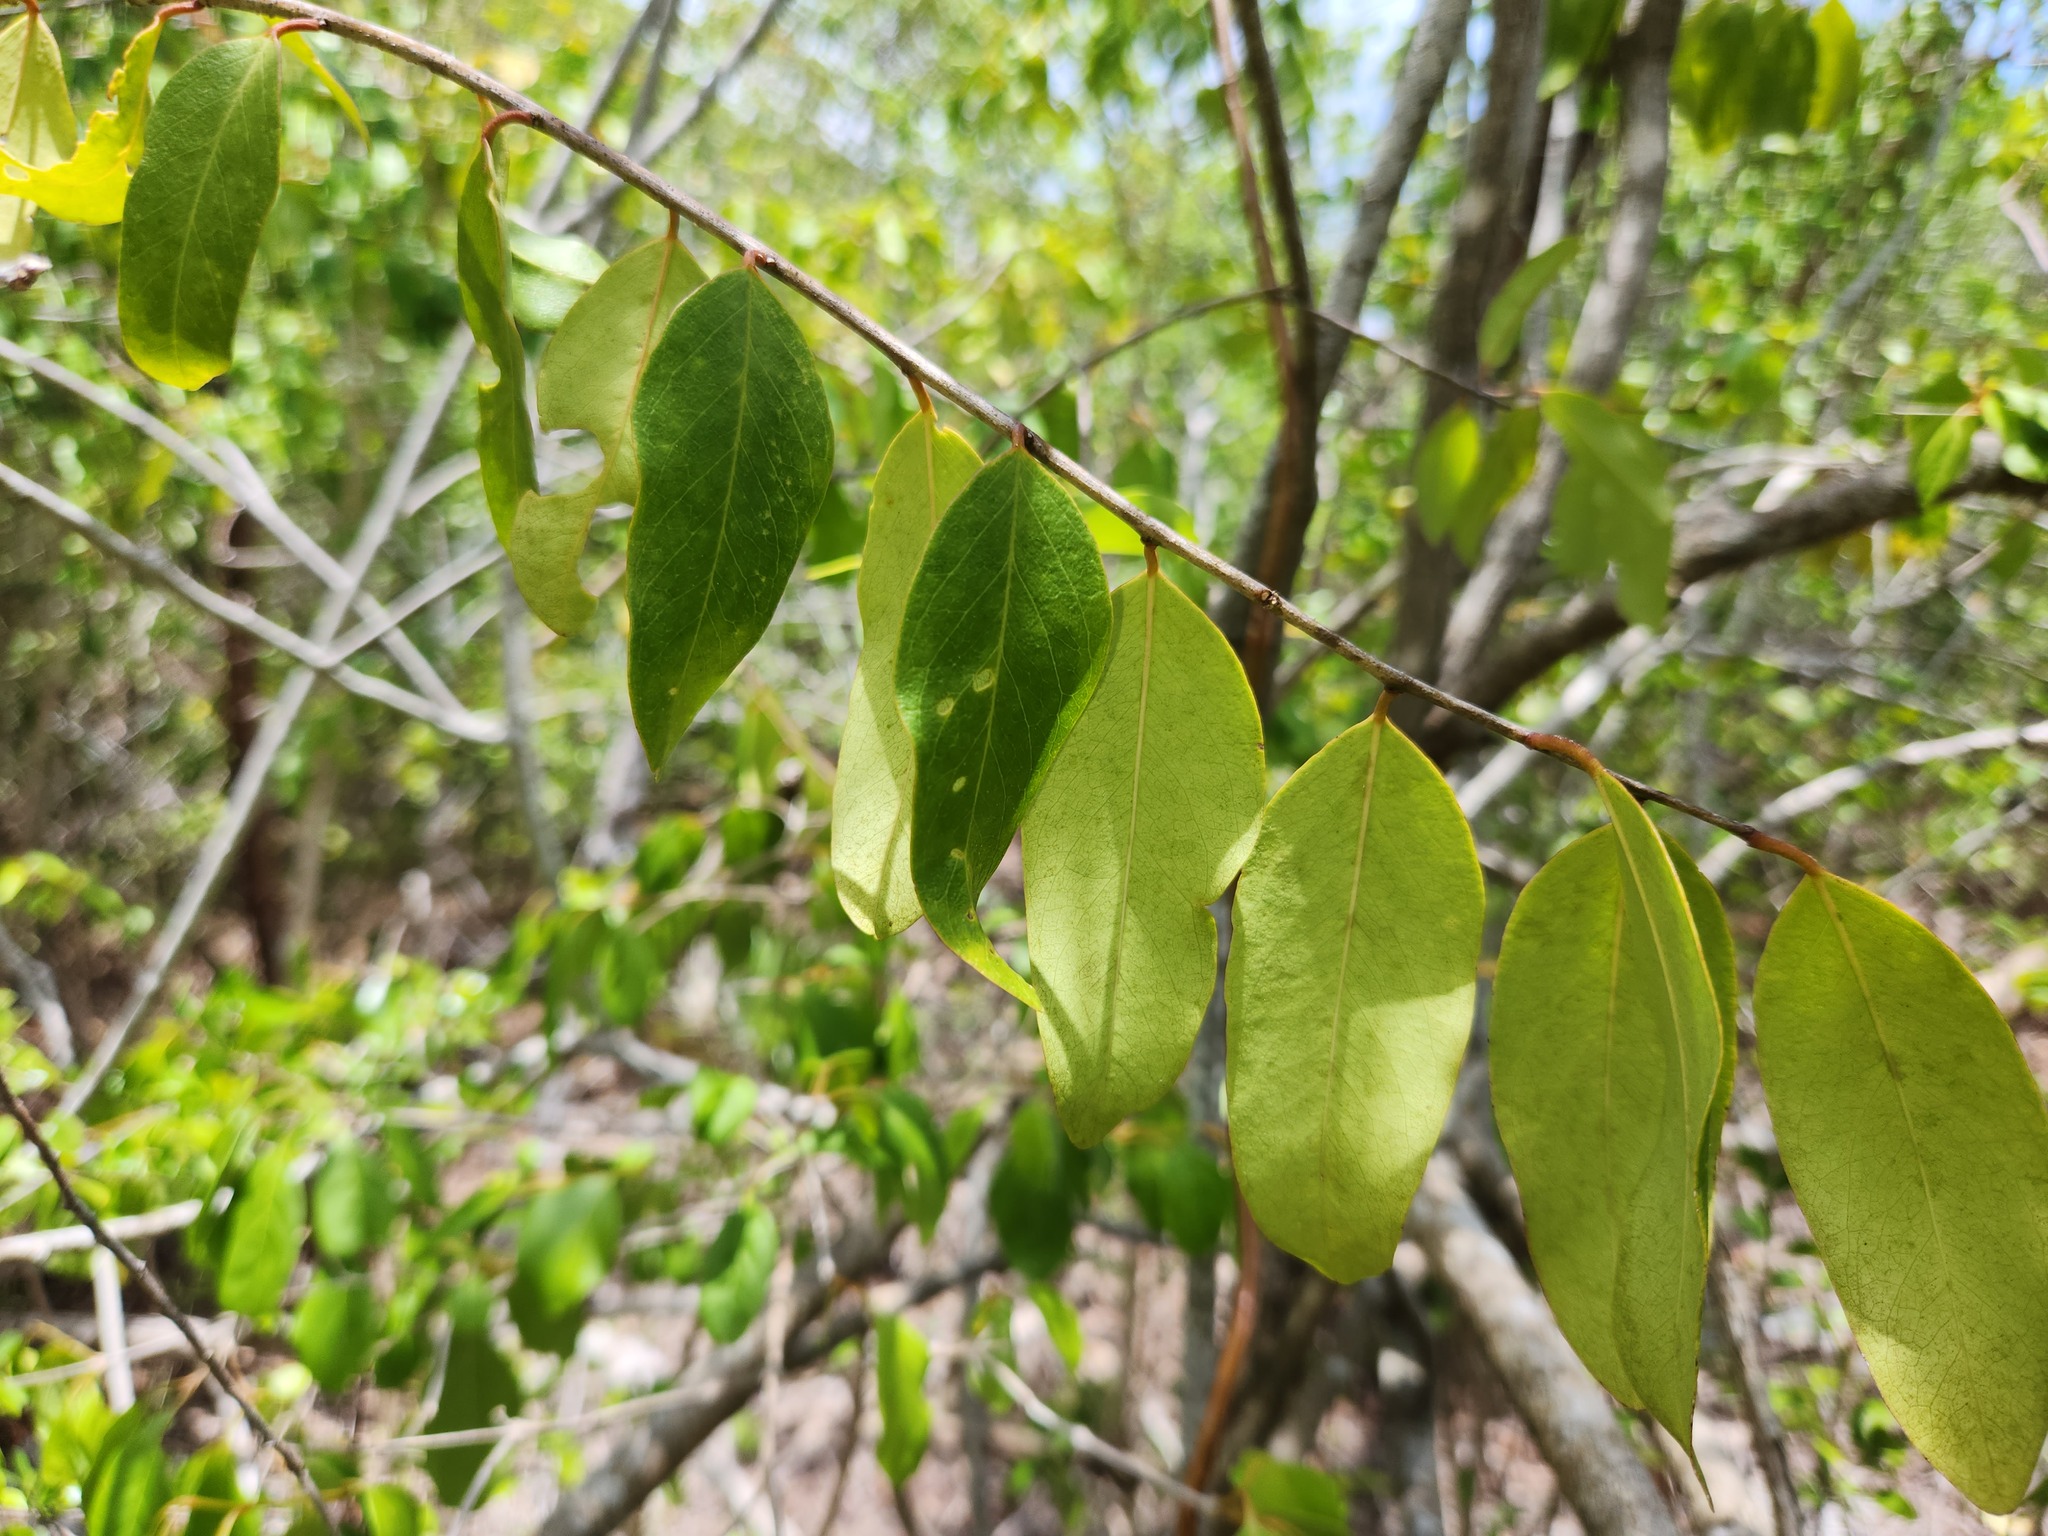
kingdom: Plantae
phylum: Tracheophyta
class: Magnoliopsida
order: Brassicales
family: Capparaceae
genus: Cynophalla
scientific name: Cynophalla flexuosa
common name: Capertree
